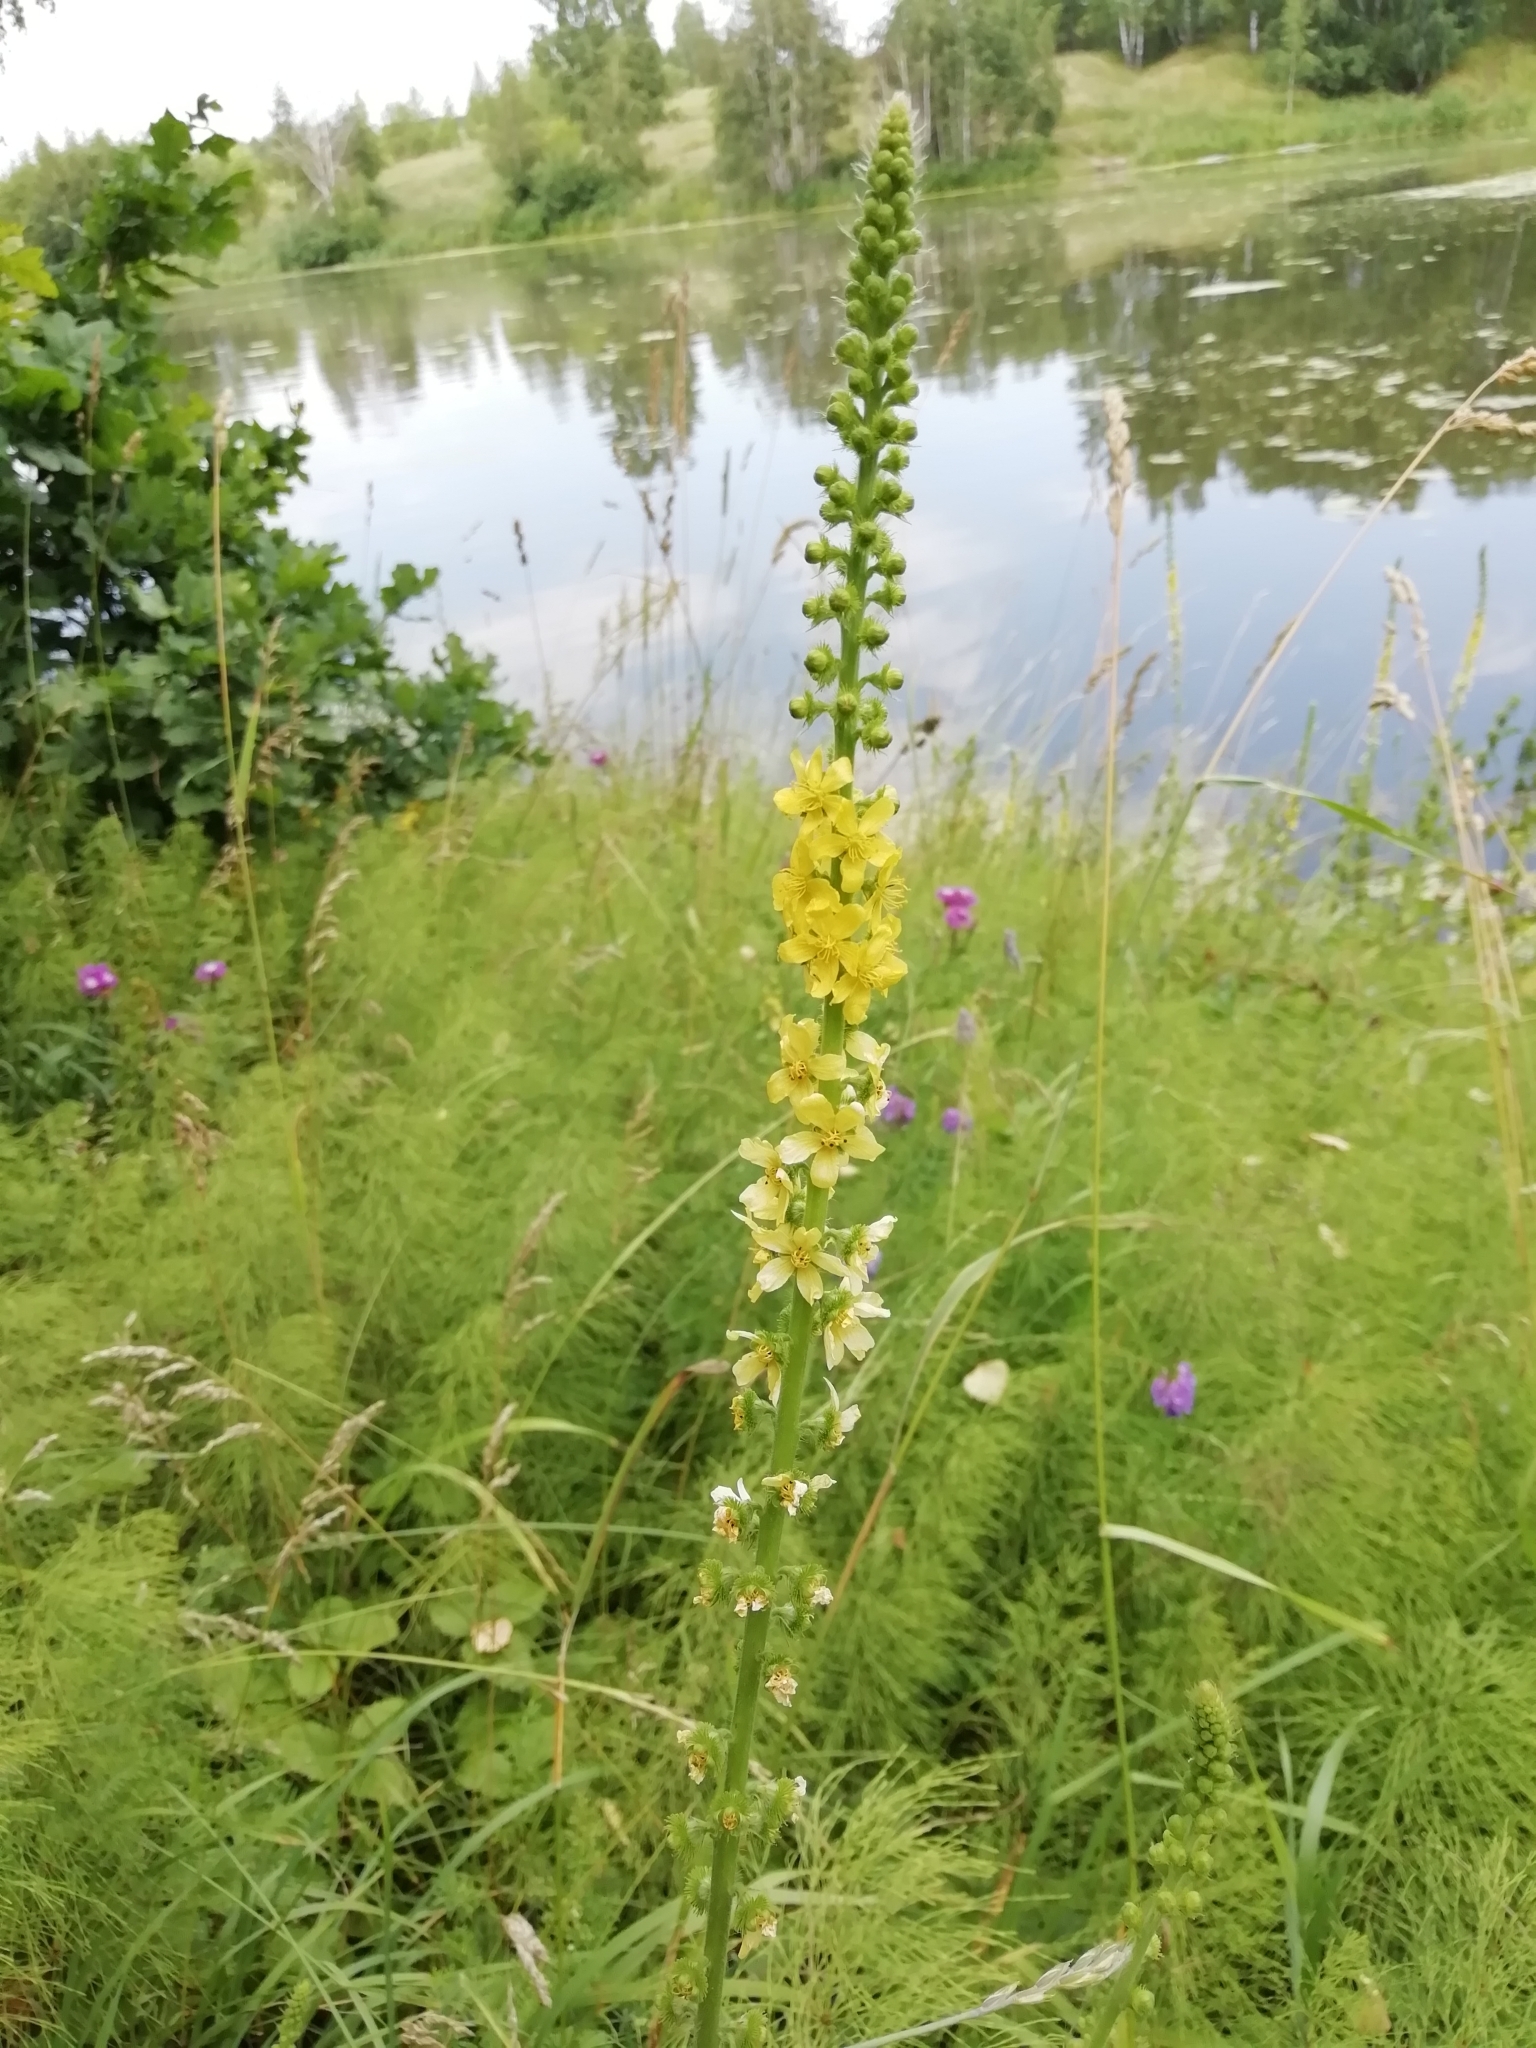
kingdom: Plantae
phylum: Tracheophyta
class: Magnoliopsida
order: Rosales
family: Rosaceae
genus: Agrimonia
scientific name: Agrimonia eupatoria
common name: Agrimony
